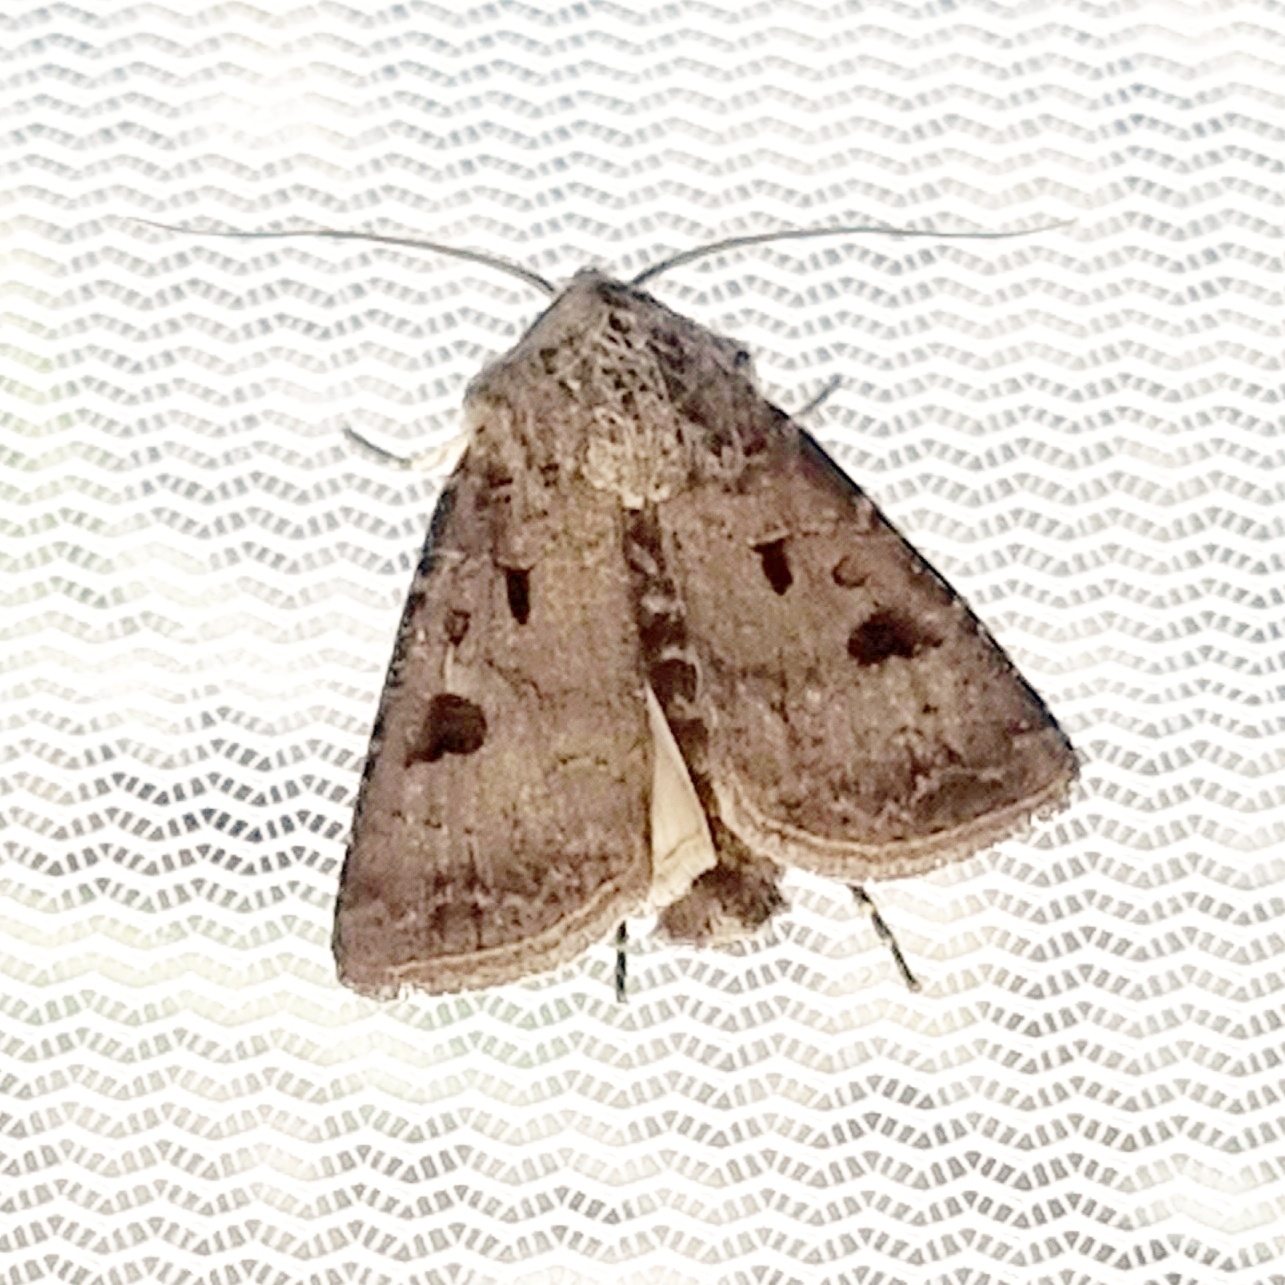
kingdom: Animalia
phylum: Arthropoda
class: Insecta
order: Lepidoptera
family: Noctuidae
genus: Agrotis
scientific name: Agrotis exclamationis
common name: Heart and dart
